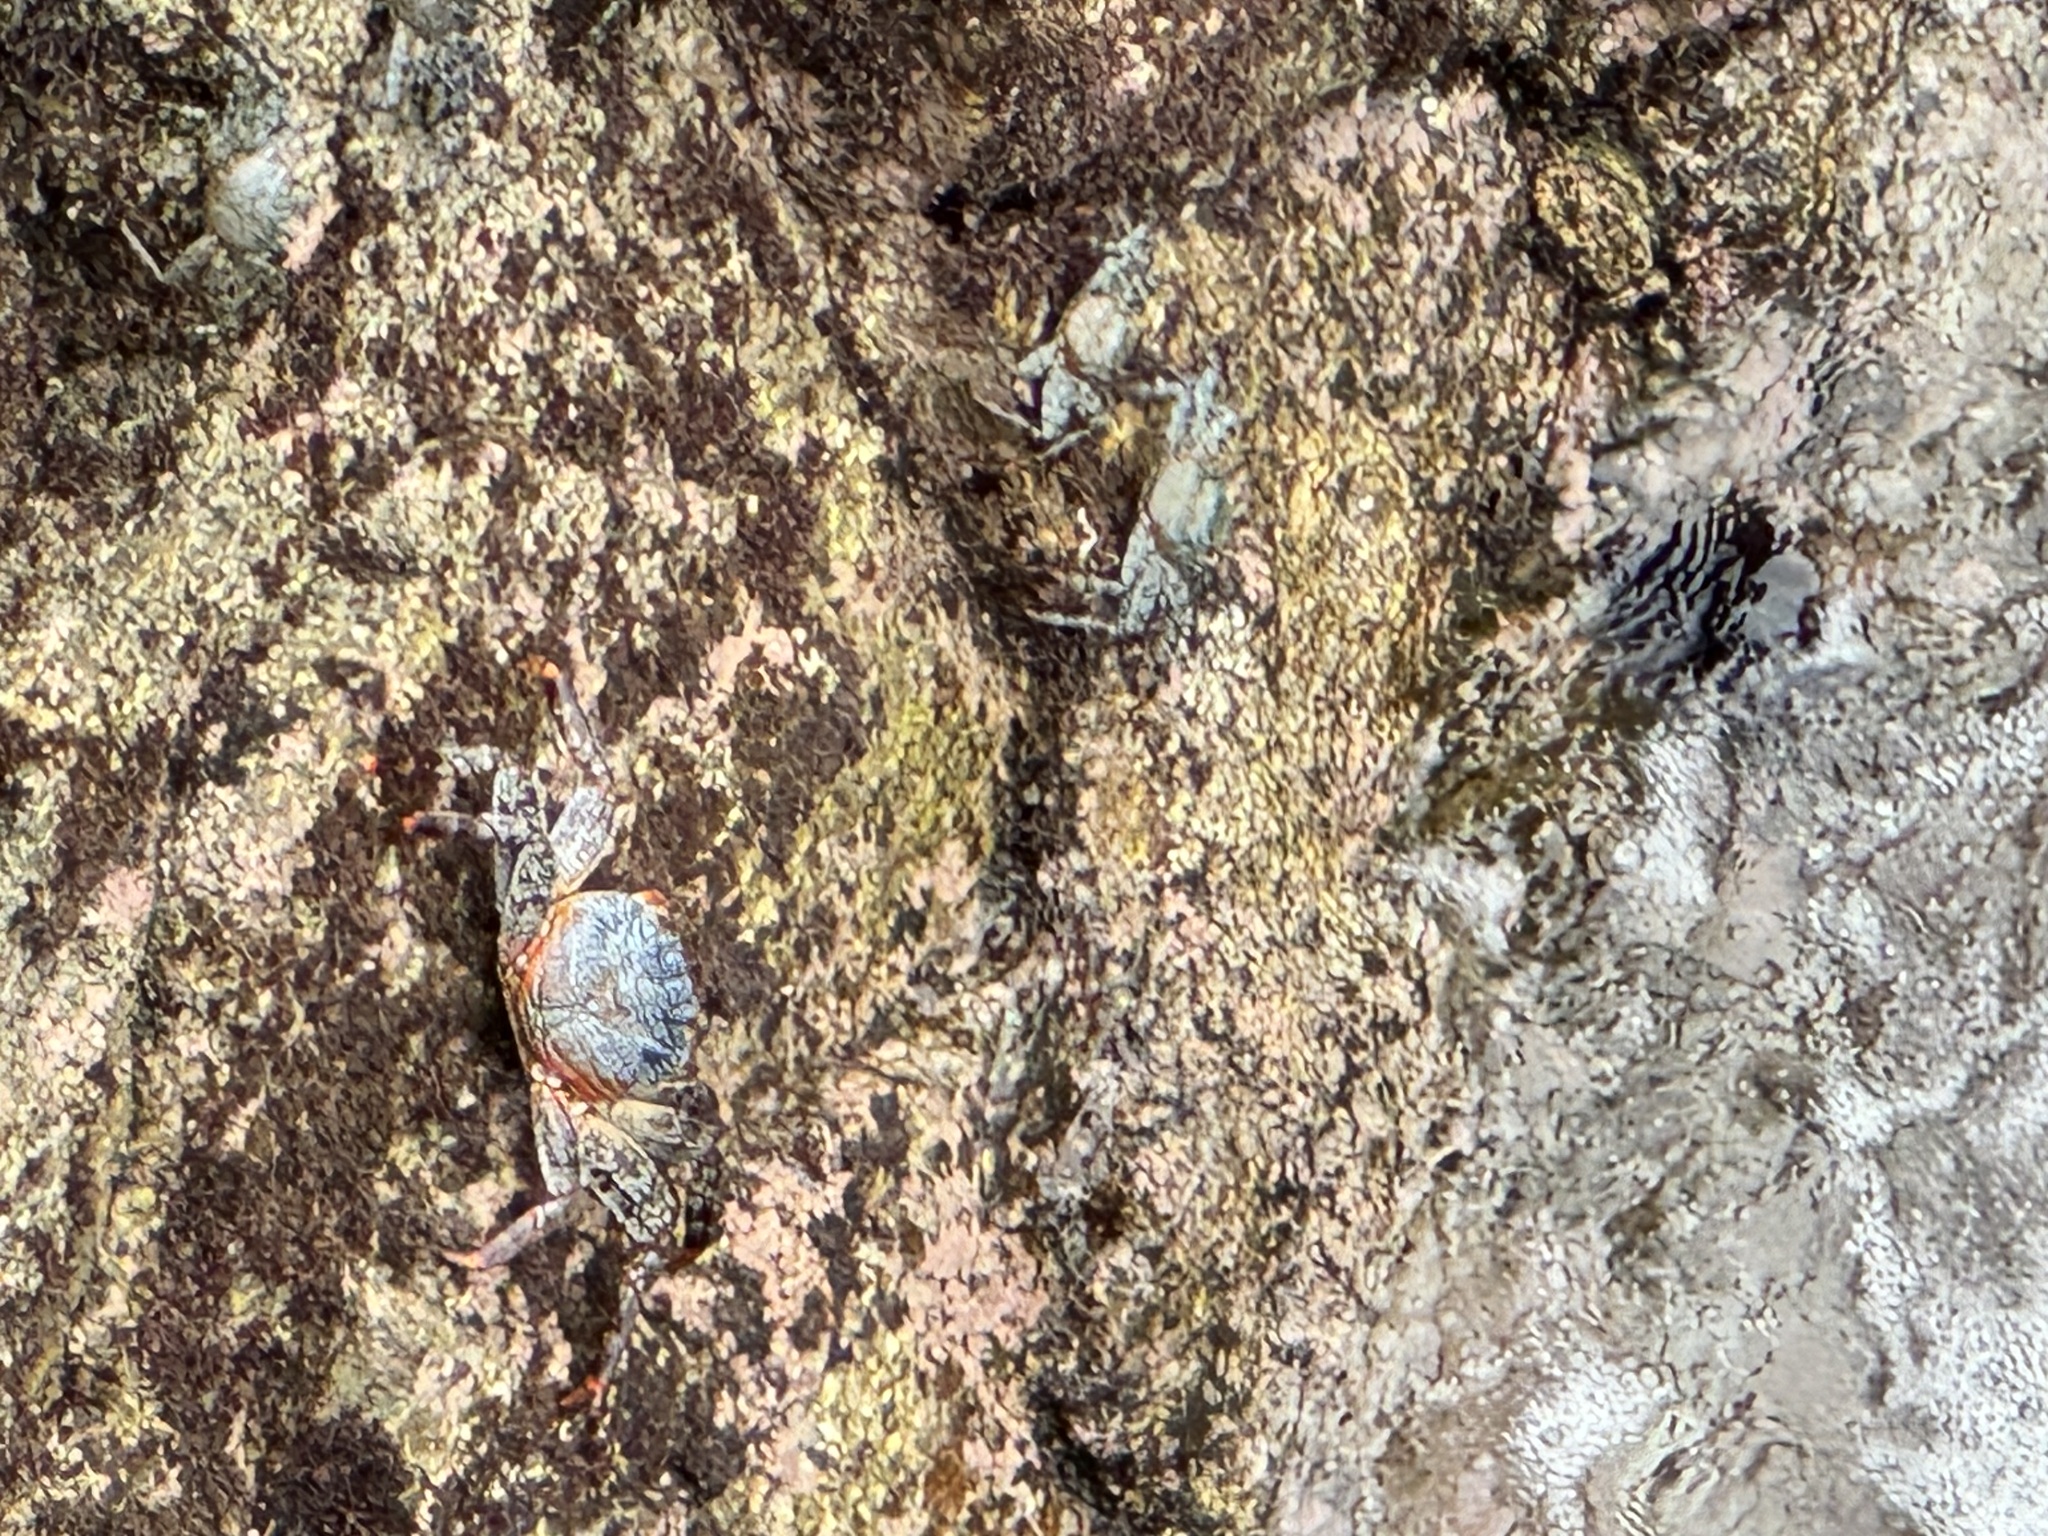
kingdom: Animalia
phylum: Arthropoda
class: Malacostraca
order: Decapoda
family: Grapsidae
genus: Grapsus
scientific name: Grapsus grapsus
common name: Sally lightfoot
